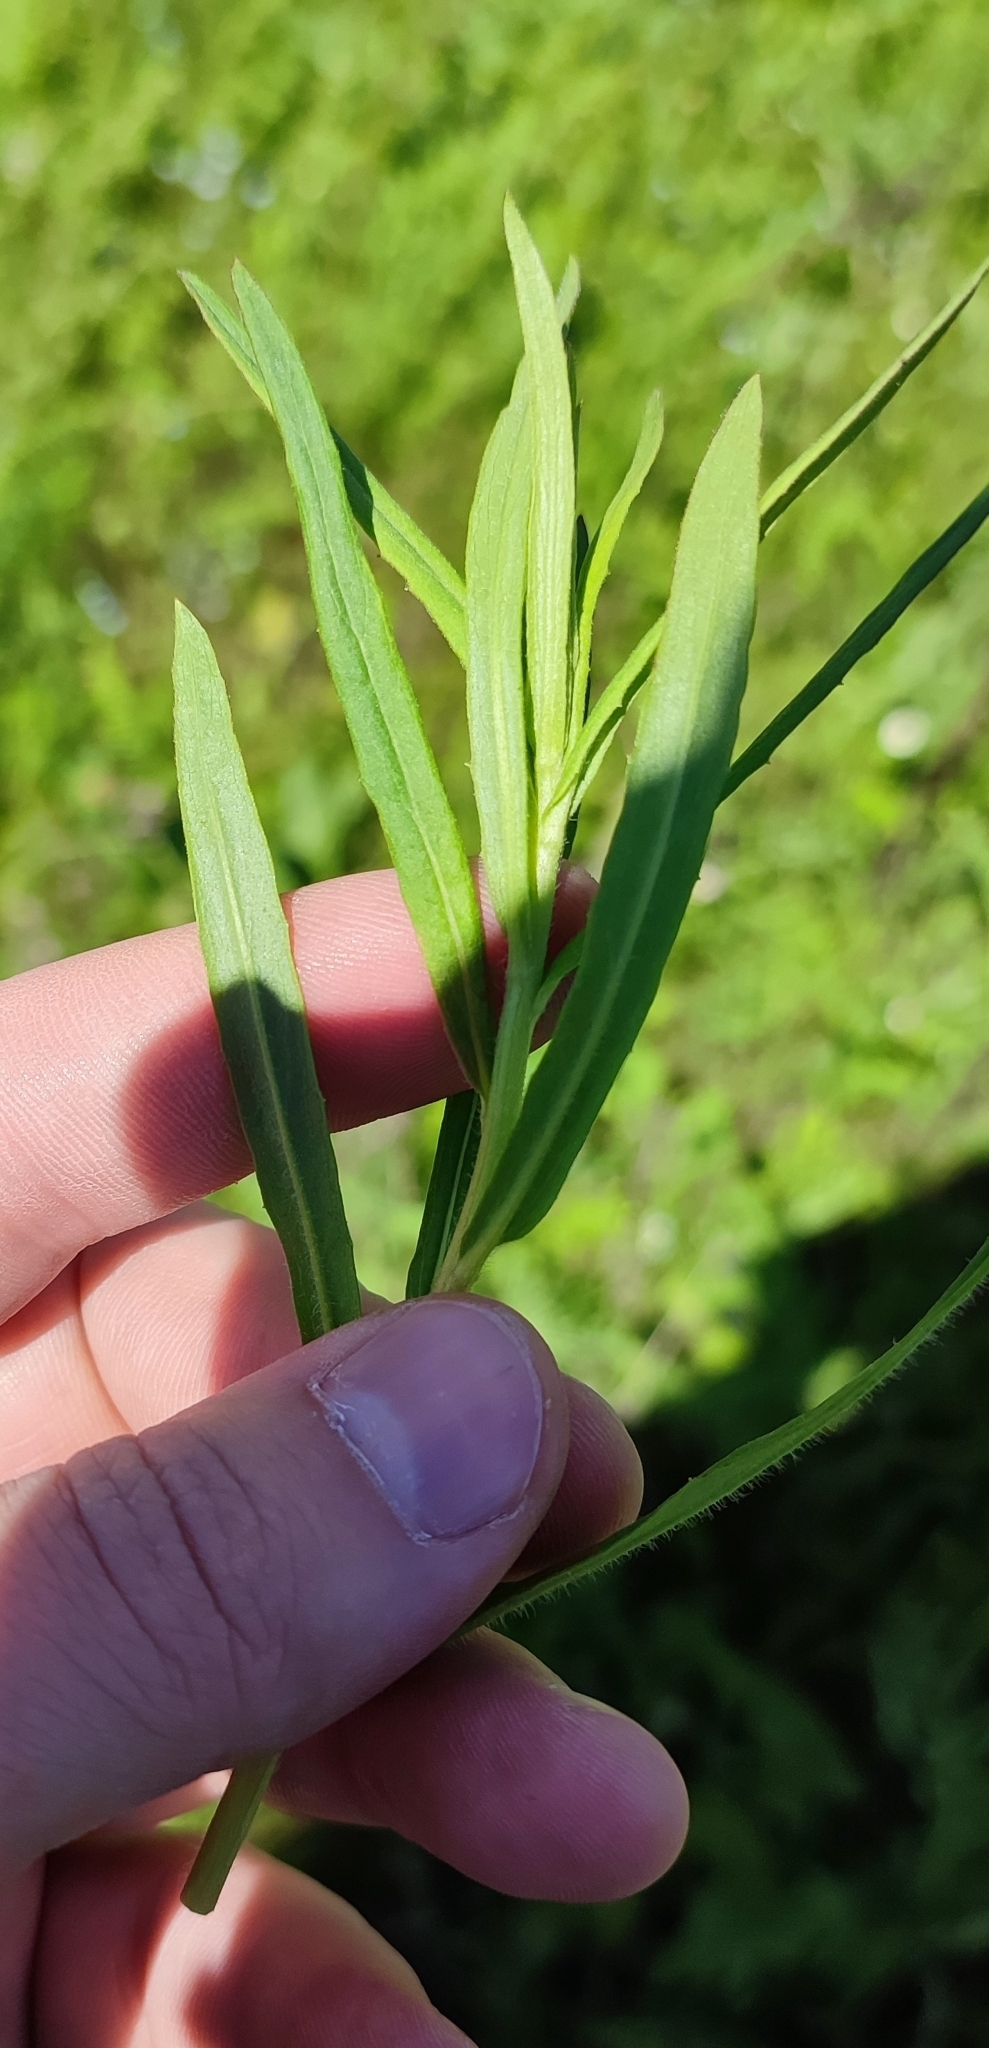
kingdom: Plantae
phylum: Tracheophyta
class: Magnoliopsida
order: Asterales
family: Asteraceae
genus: Achillea
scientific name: Achillea salicifolia
